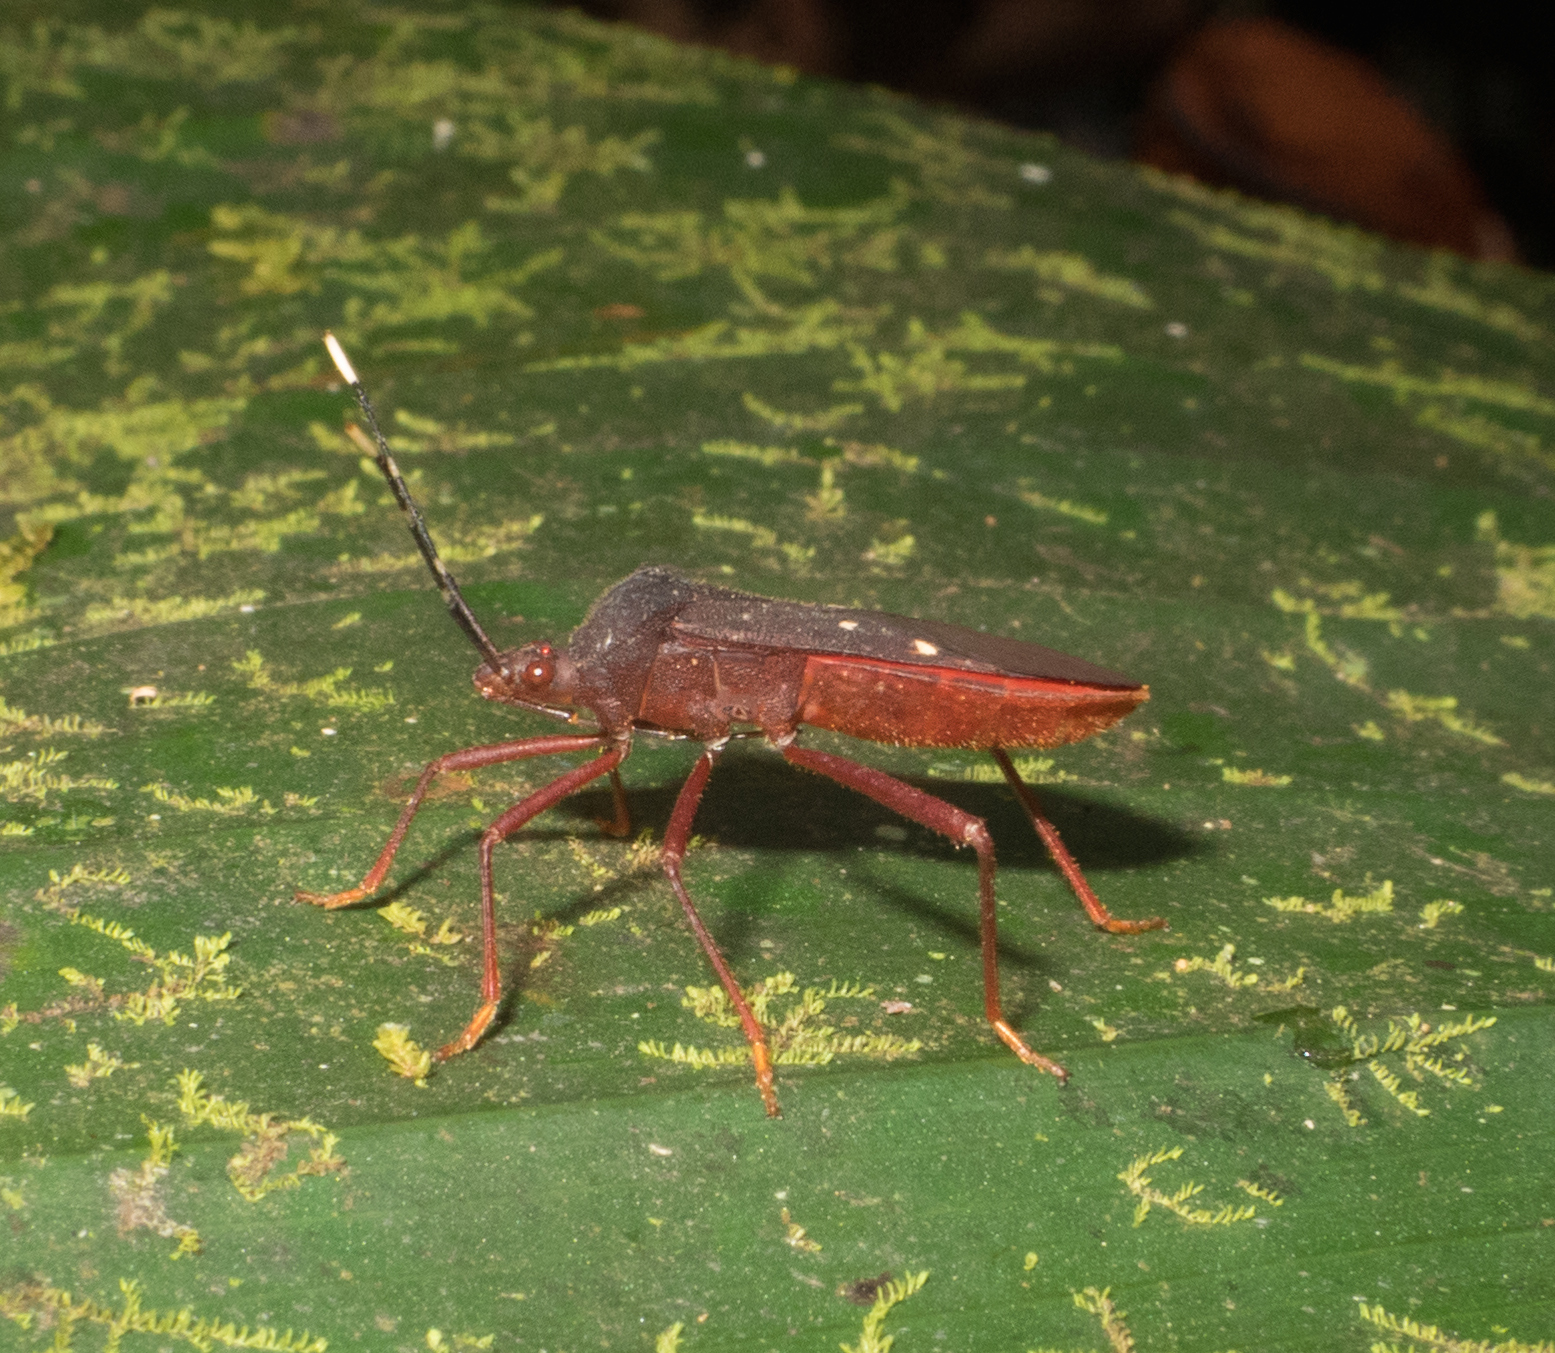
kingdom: Animalia
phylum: Arthropoda
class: Insecta
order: Hemiptera
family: Coreidae
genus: Leptoscelis
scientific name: Leptoscelis quadrisignatus
